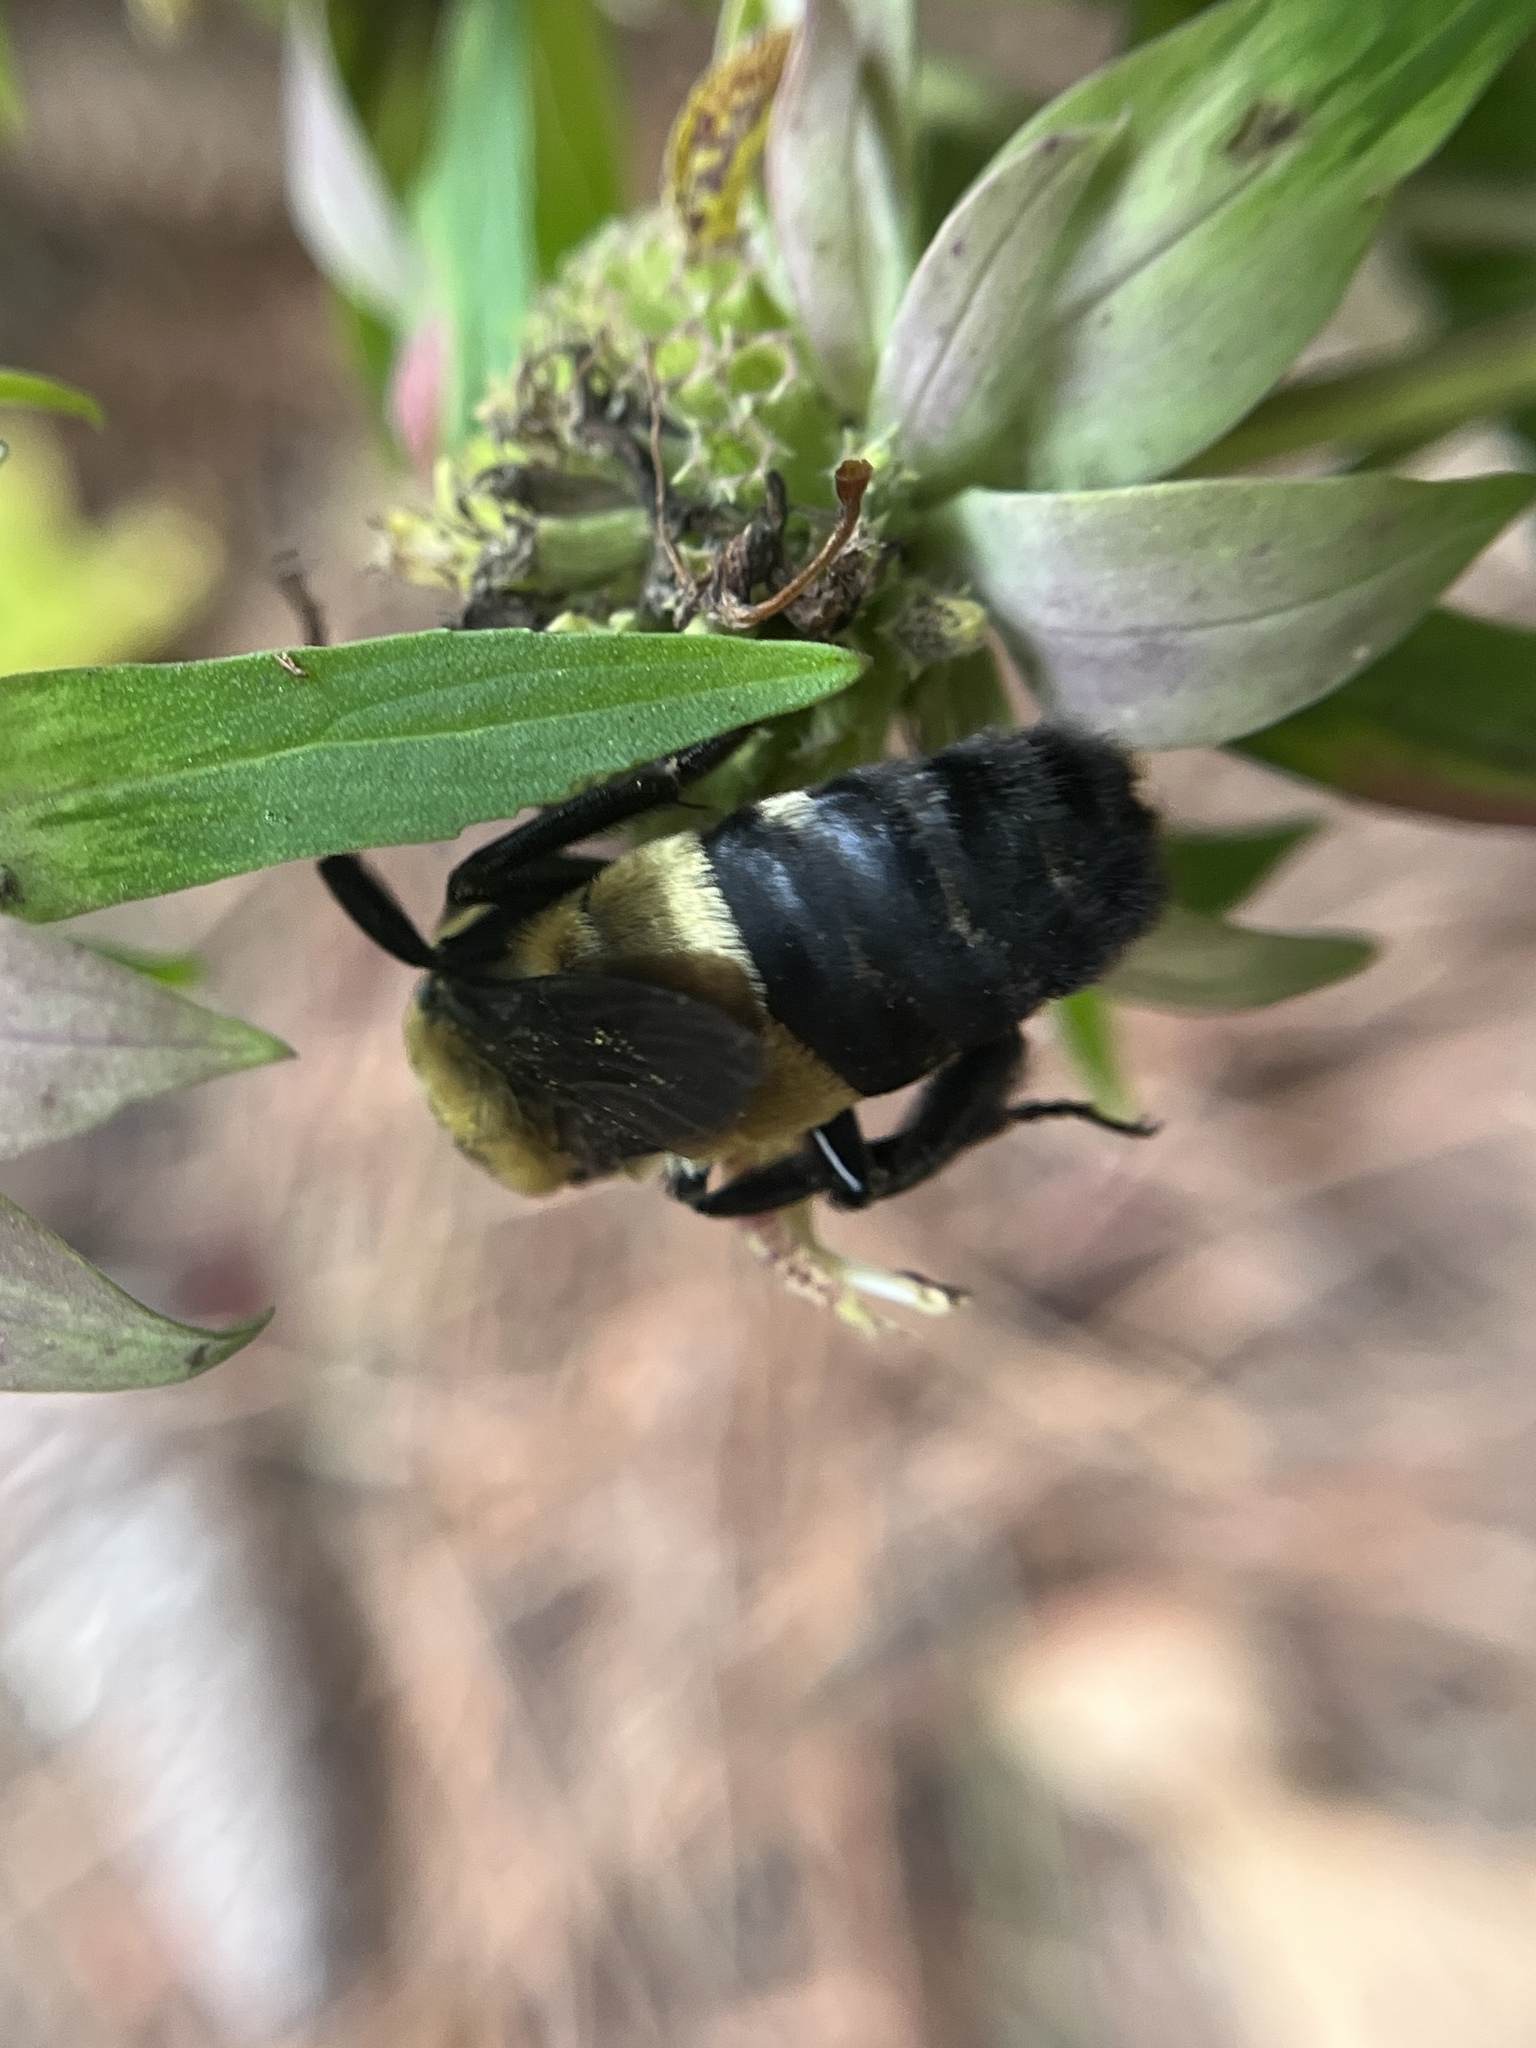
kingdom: Animalia
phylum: Arthropoda
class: Insecta
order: Hymenoptera
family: Apidae
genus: Bombus
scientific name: Bombus fraternus
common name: Southern plains bumble bee
